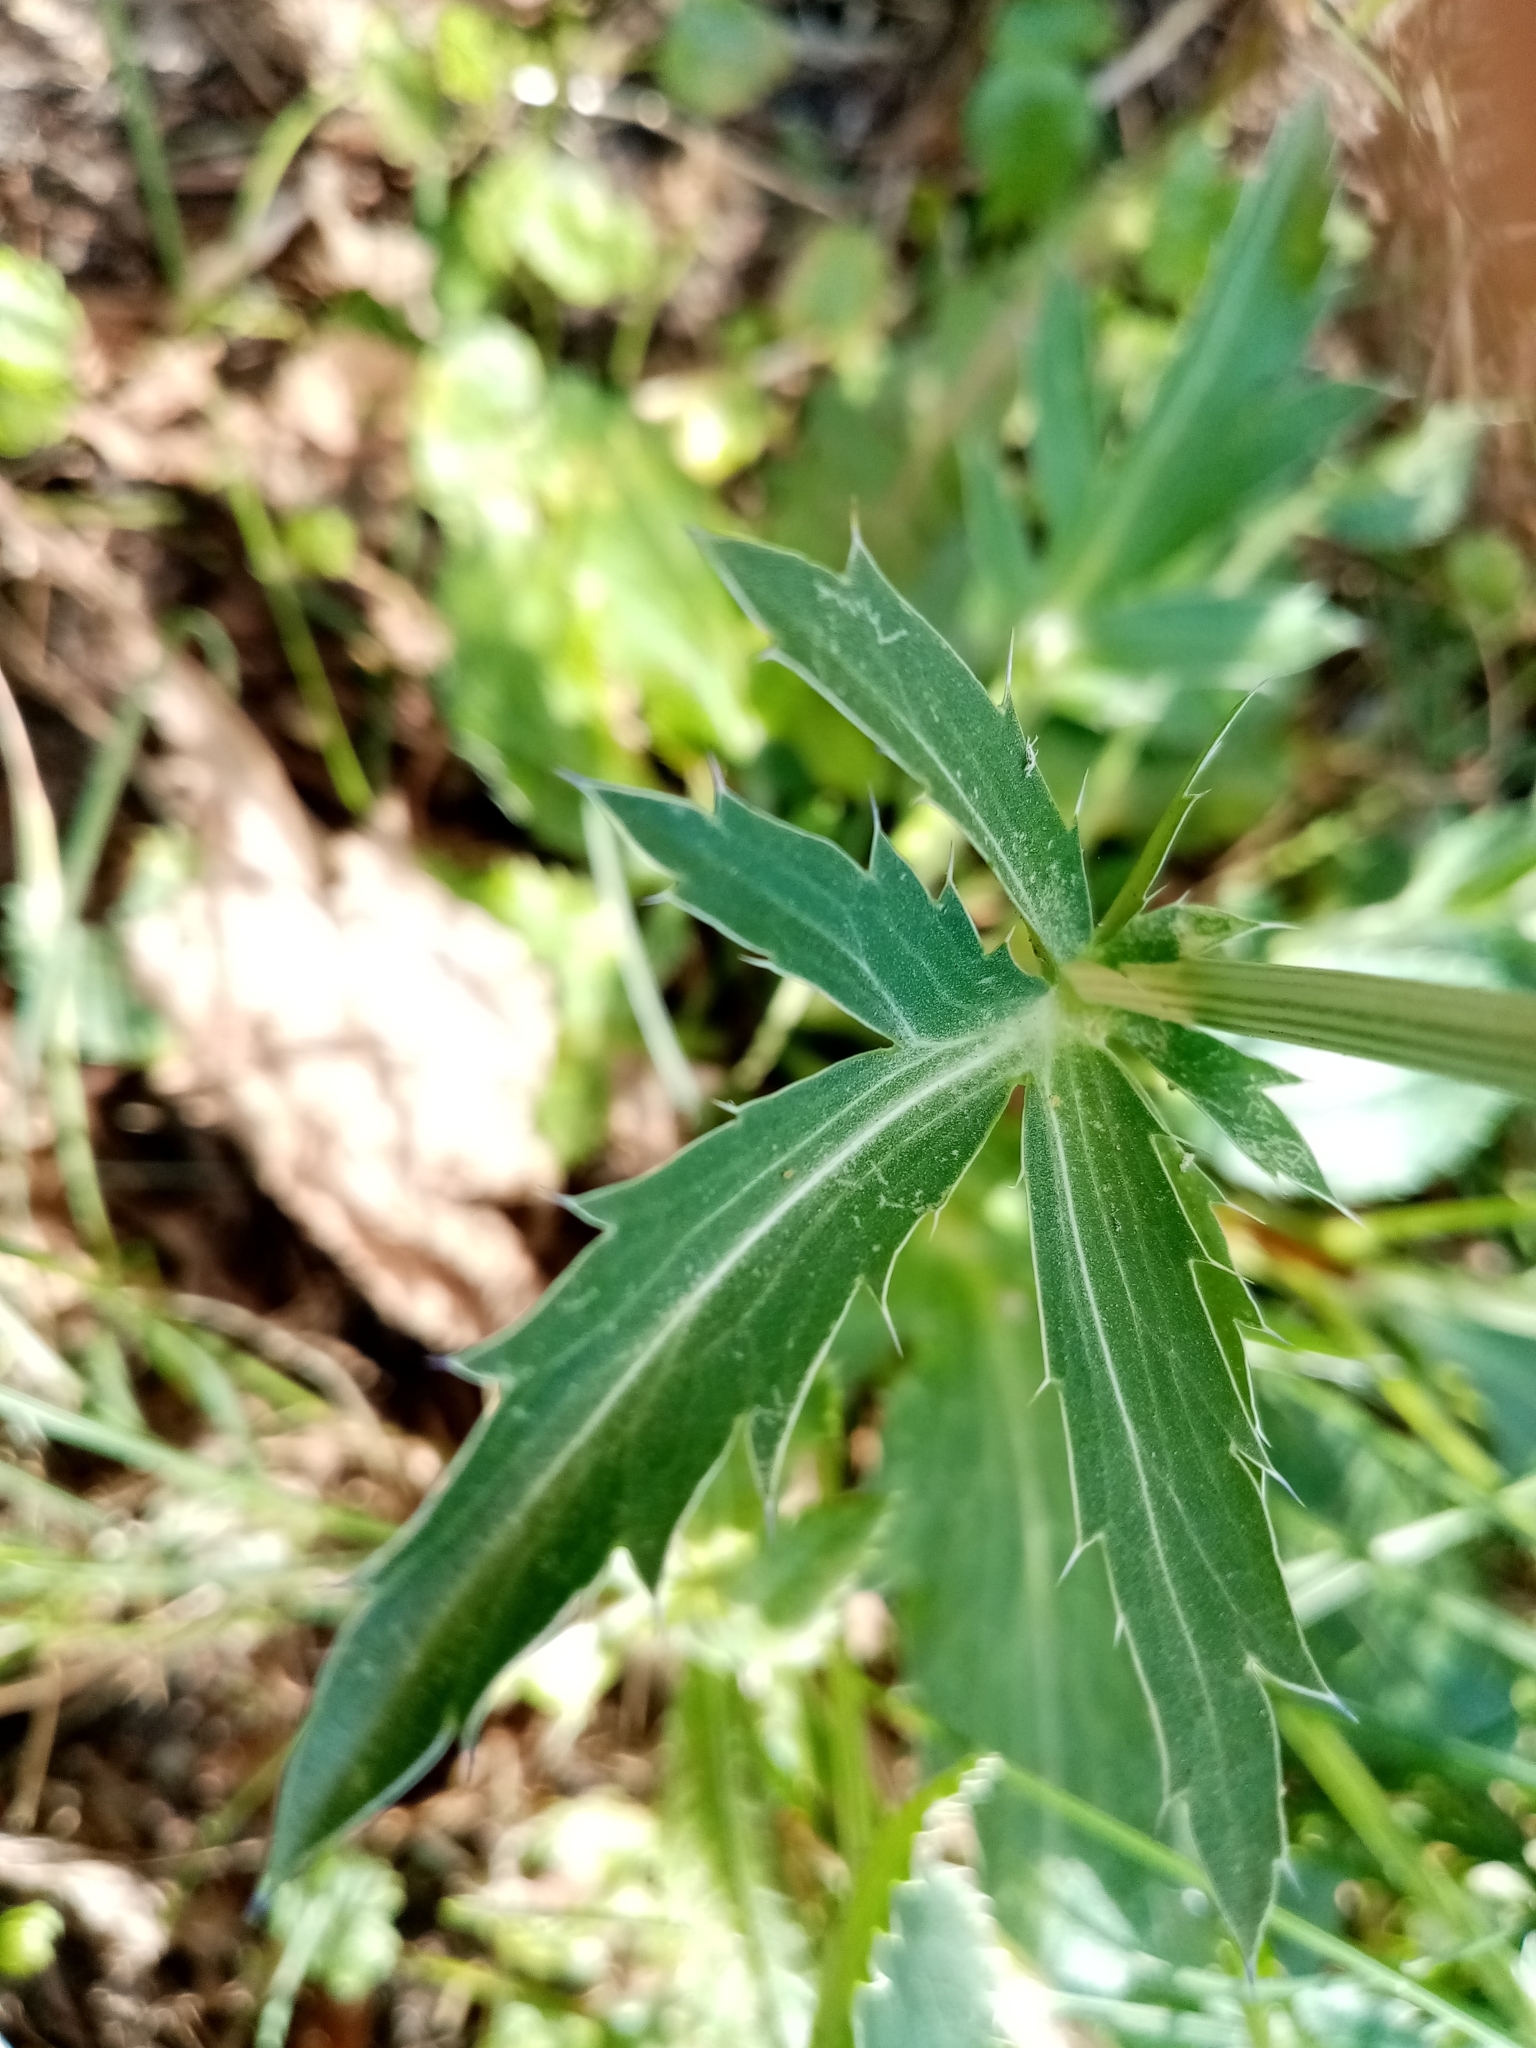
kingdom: Plantae
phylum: Tracheophyta
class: Magnoliopsida
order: Apiales
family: Apiaceae
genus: Eryngium
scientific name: Eryngium planum
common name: Blue eryngo
